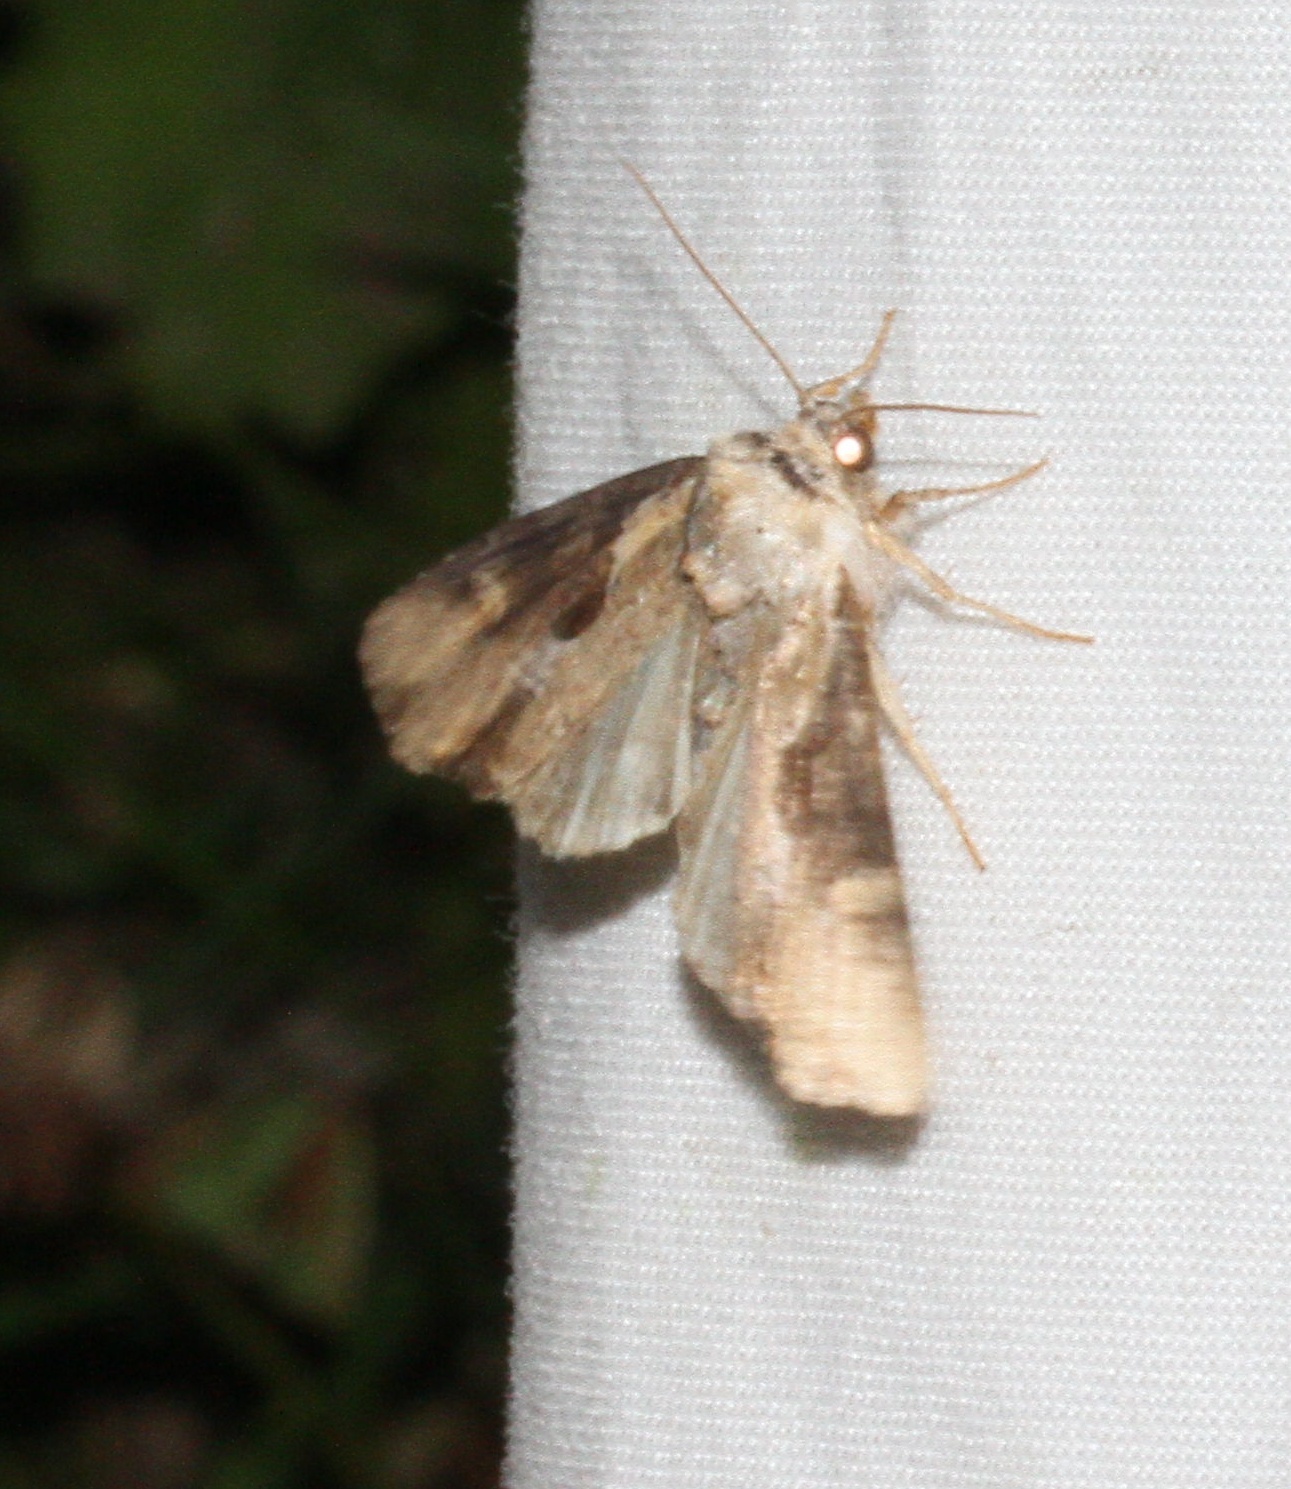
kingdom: Animalia
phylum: Arthropoda
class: Insecta
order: Lepidoptera
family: Noctuidae
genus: Lateroligia
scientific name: Lateroligia ophiogramma
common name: Double lobed
